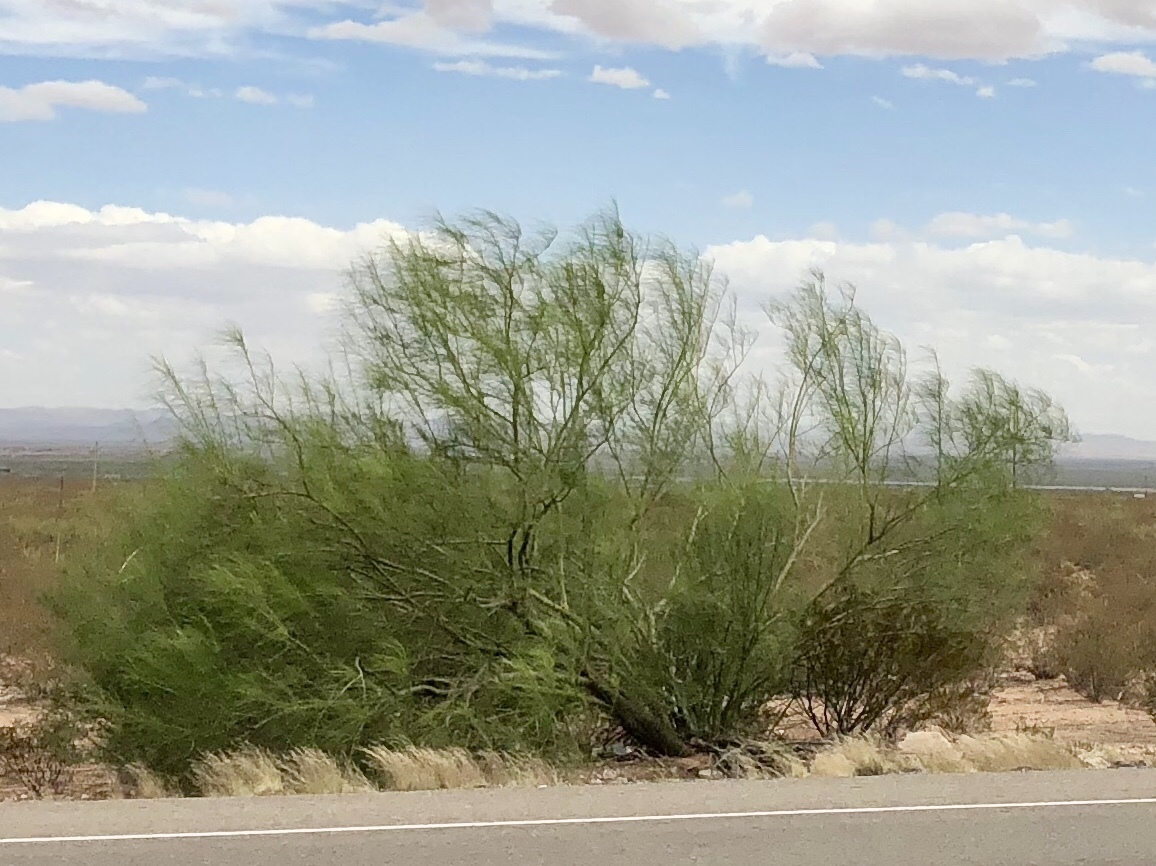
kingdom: Plantae
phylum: Tracheophyta
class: Magnoliopsida
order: Fabales
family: Fabaceae
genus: Parkinsonia
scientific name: Parkinsonia aculeata
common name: Jerusalem thorn
